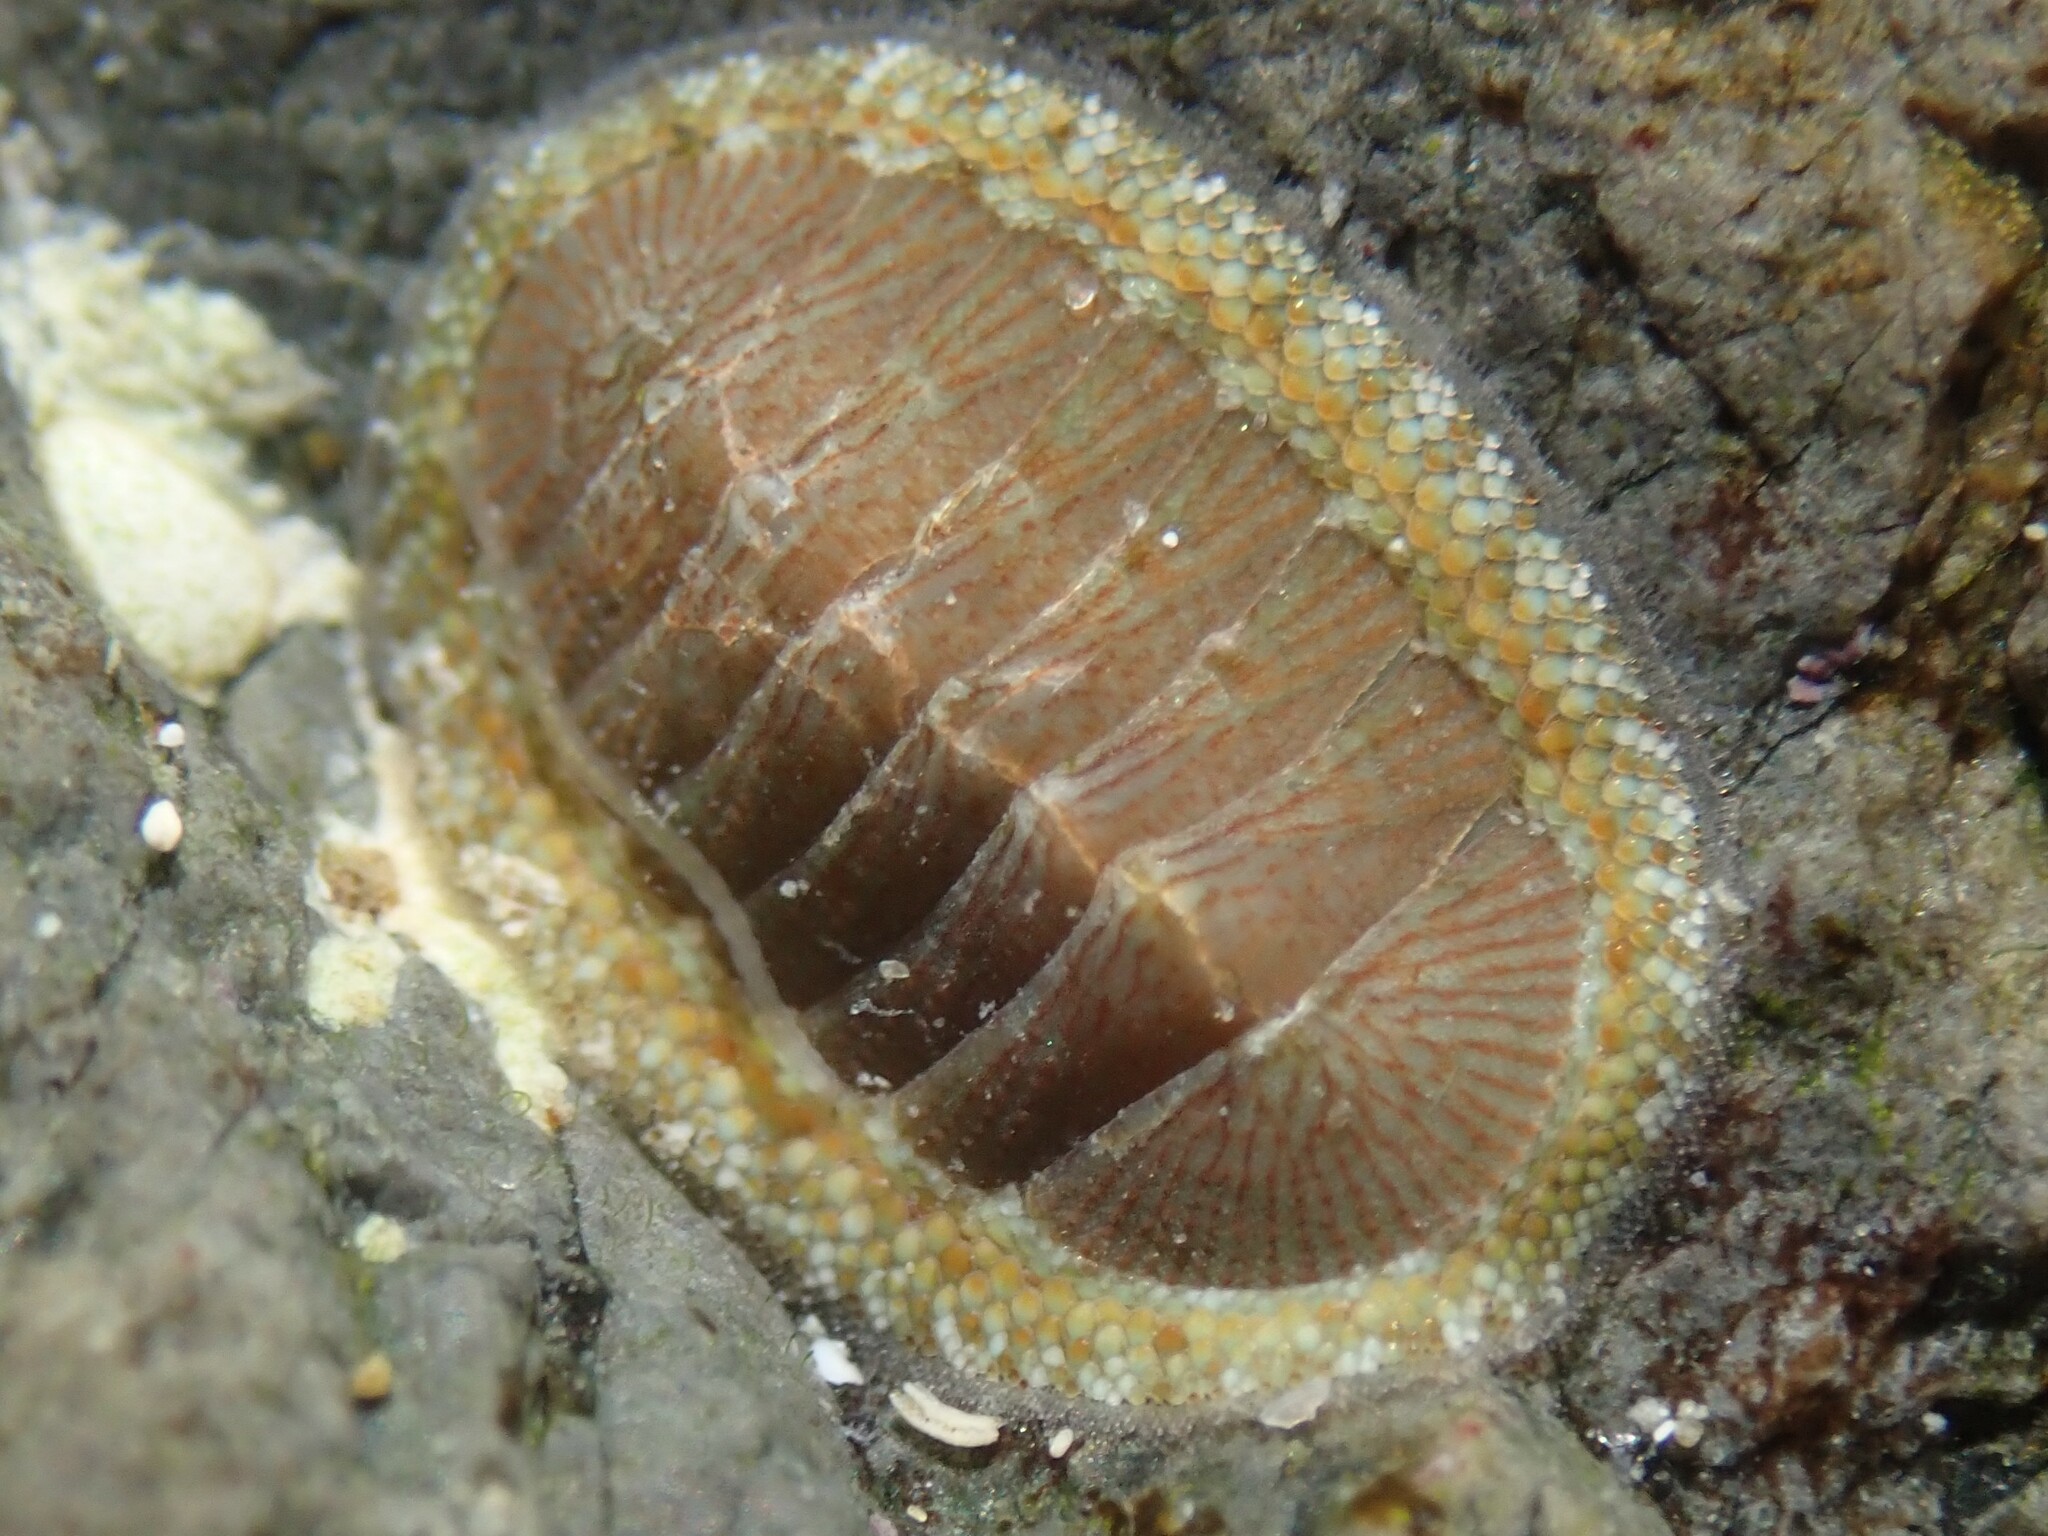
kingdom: Animalia
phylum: Mollusca
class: Polyplacophora
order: Chitonida
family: Chitonidae
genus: Chiton
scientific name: Chiton glaucus
